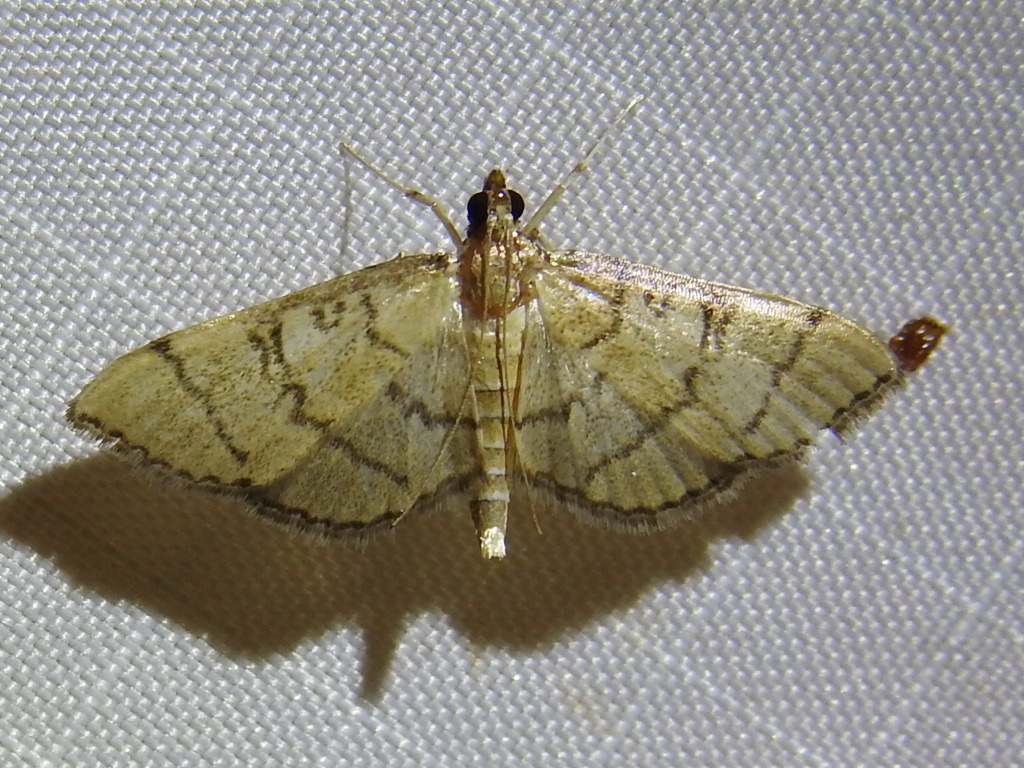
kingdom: Animalia
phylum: Arthropoda
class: Insecta
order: Lepidoptera
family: Crambidae
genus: Lamprosema
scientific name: Lamprosema Blepharomastix ranalis
